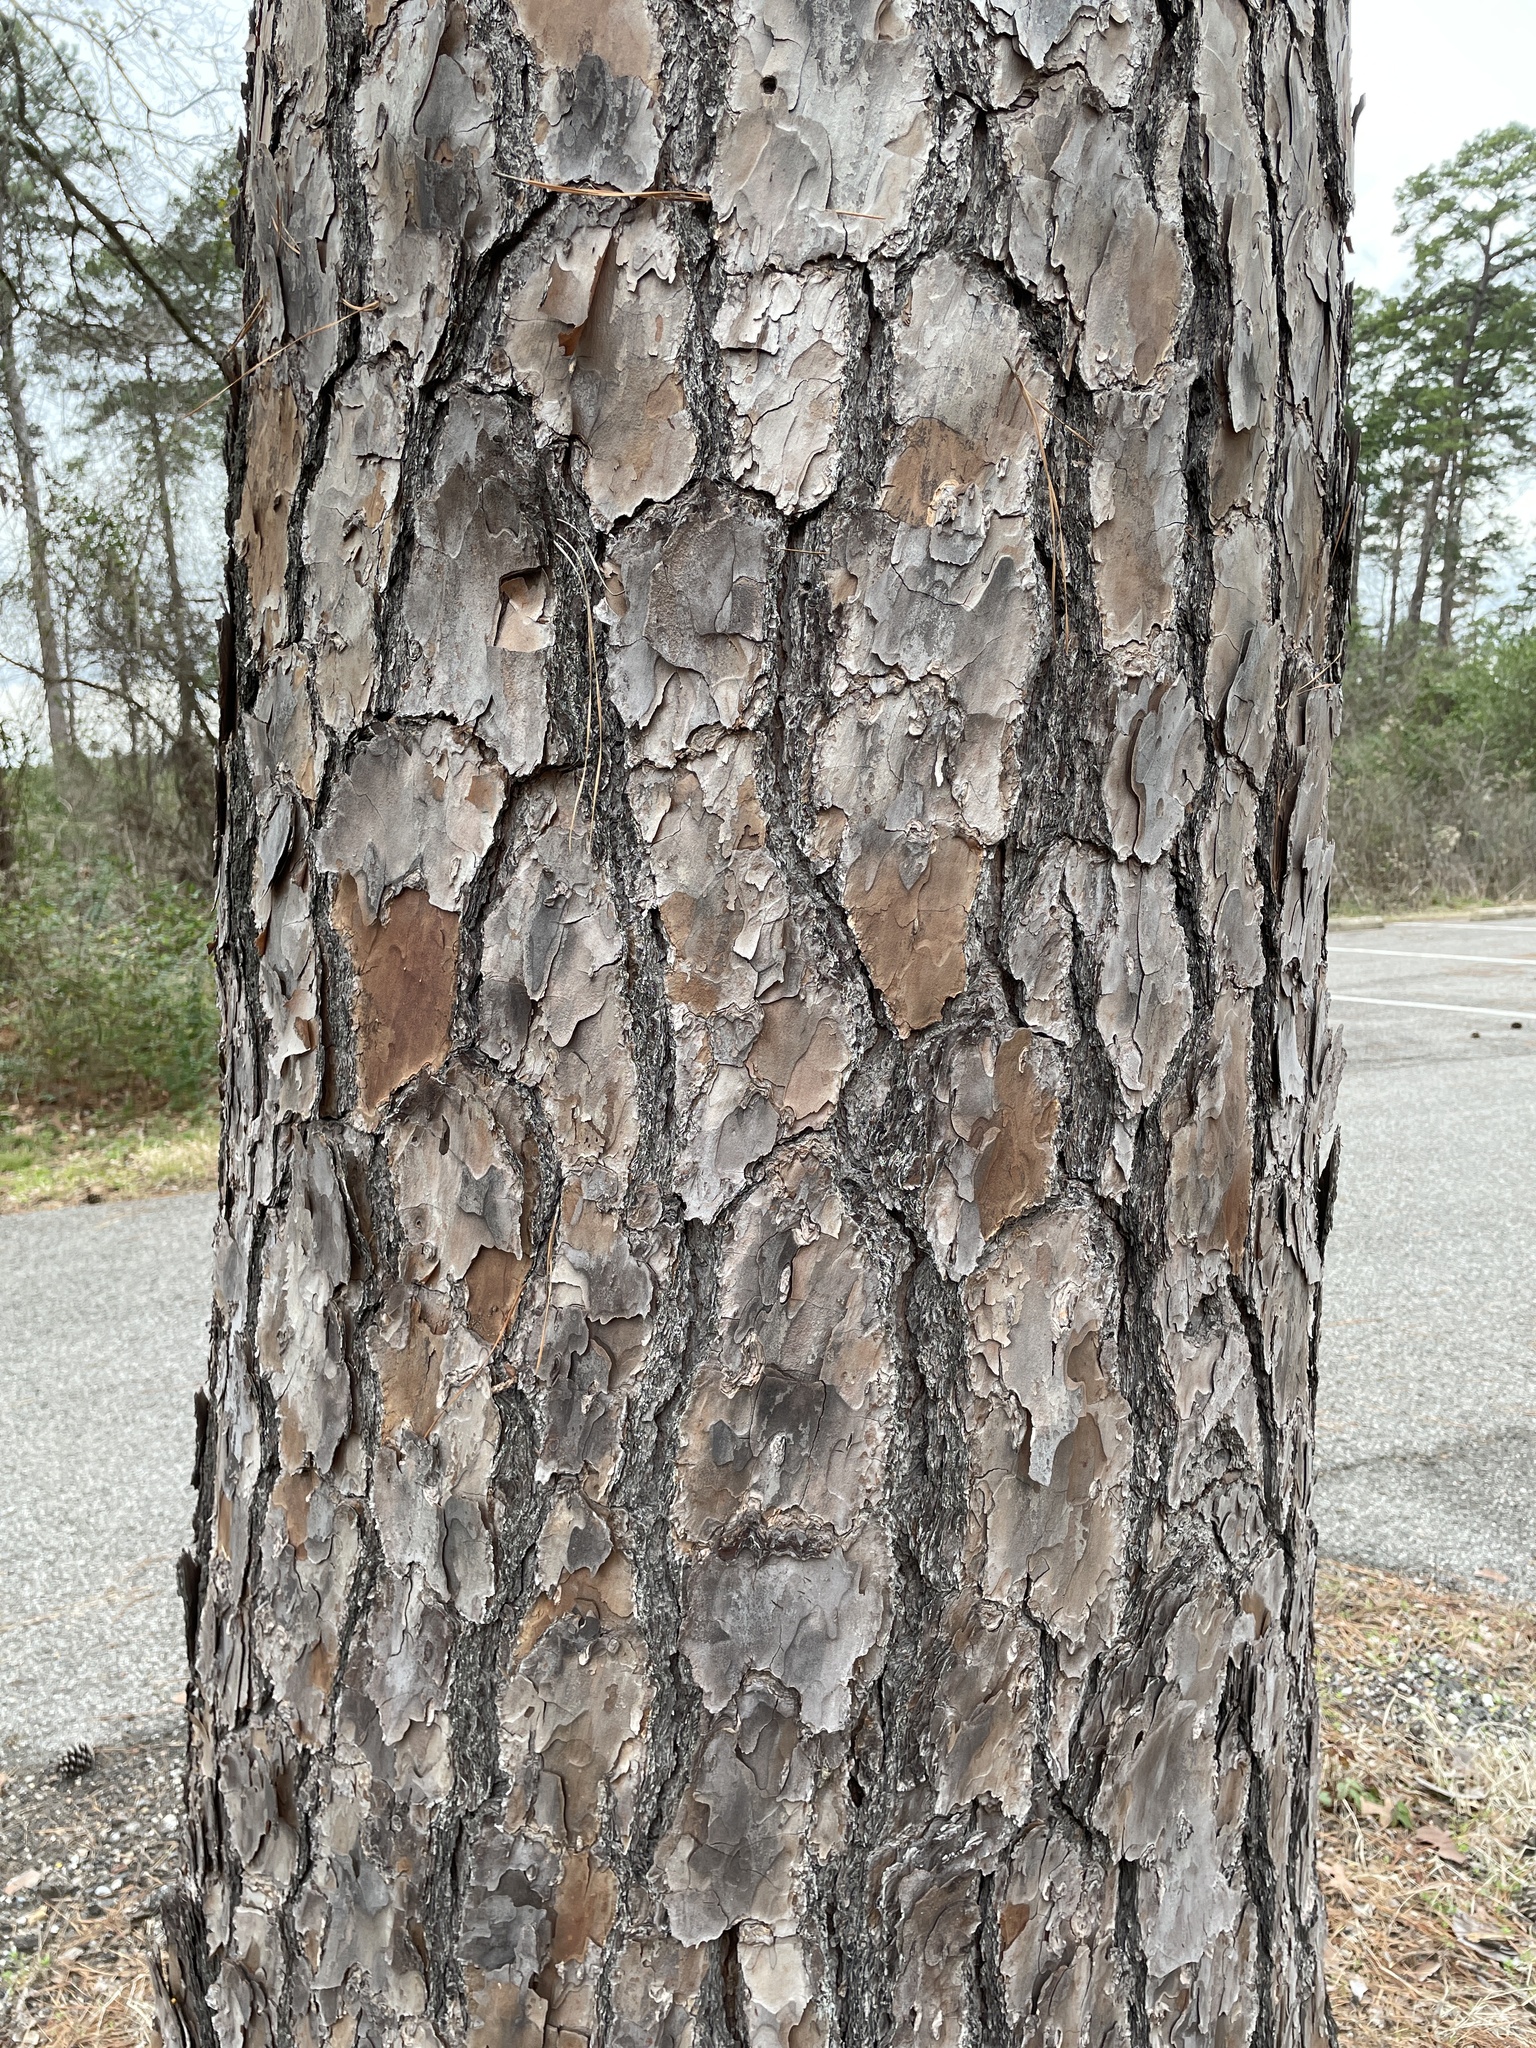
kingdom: Plantae
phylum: Tracheophyta
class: Pinopsida
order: Pinales
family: Pinaceae
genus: Pinus
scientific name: Pinus taeda
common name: Loblolly pine
